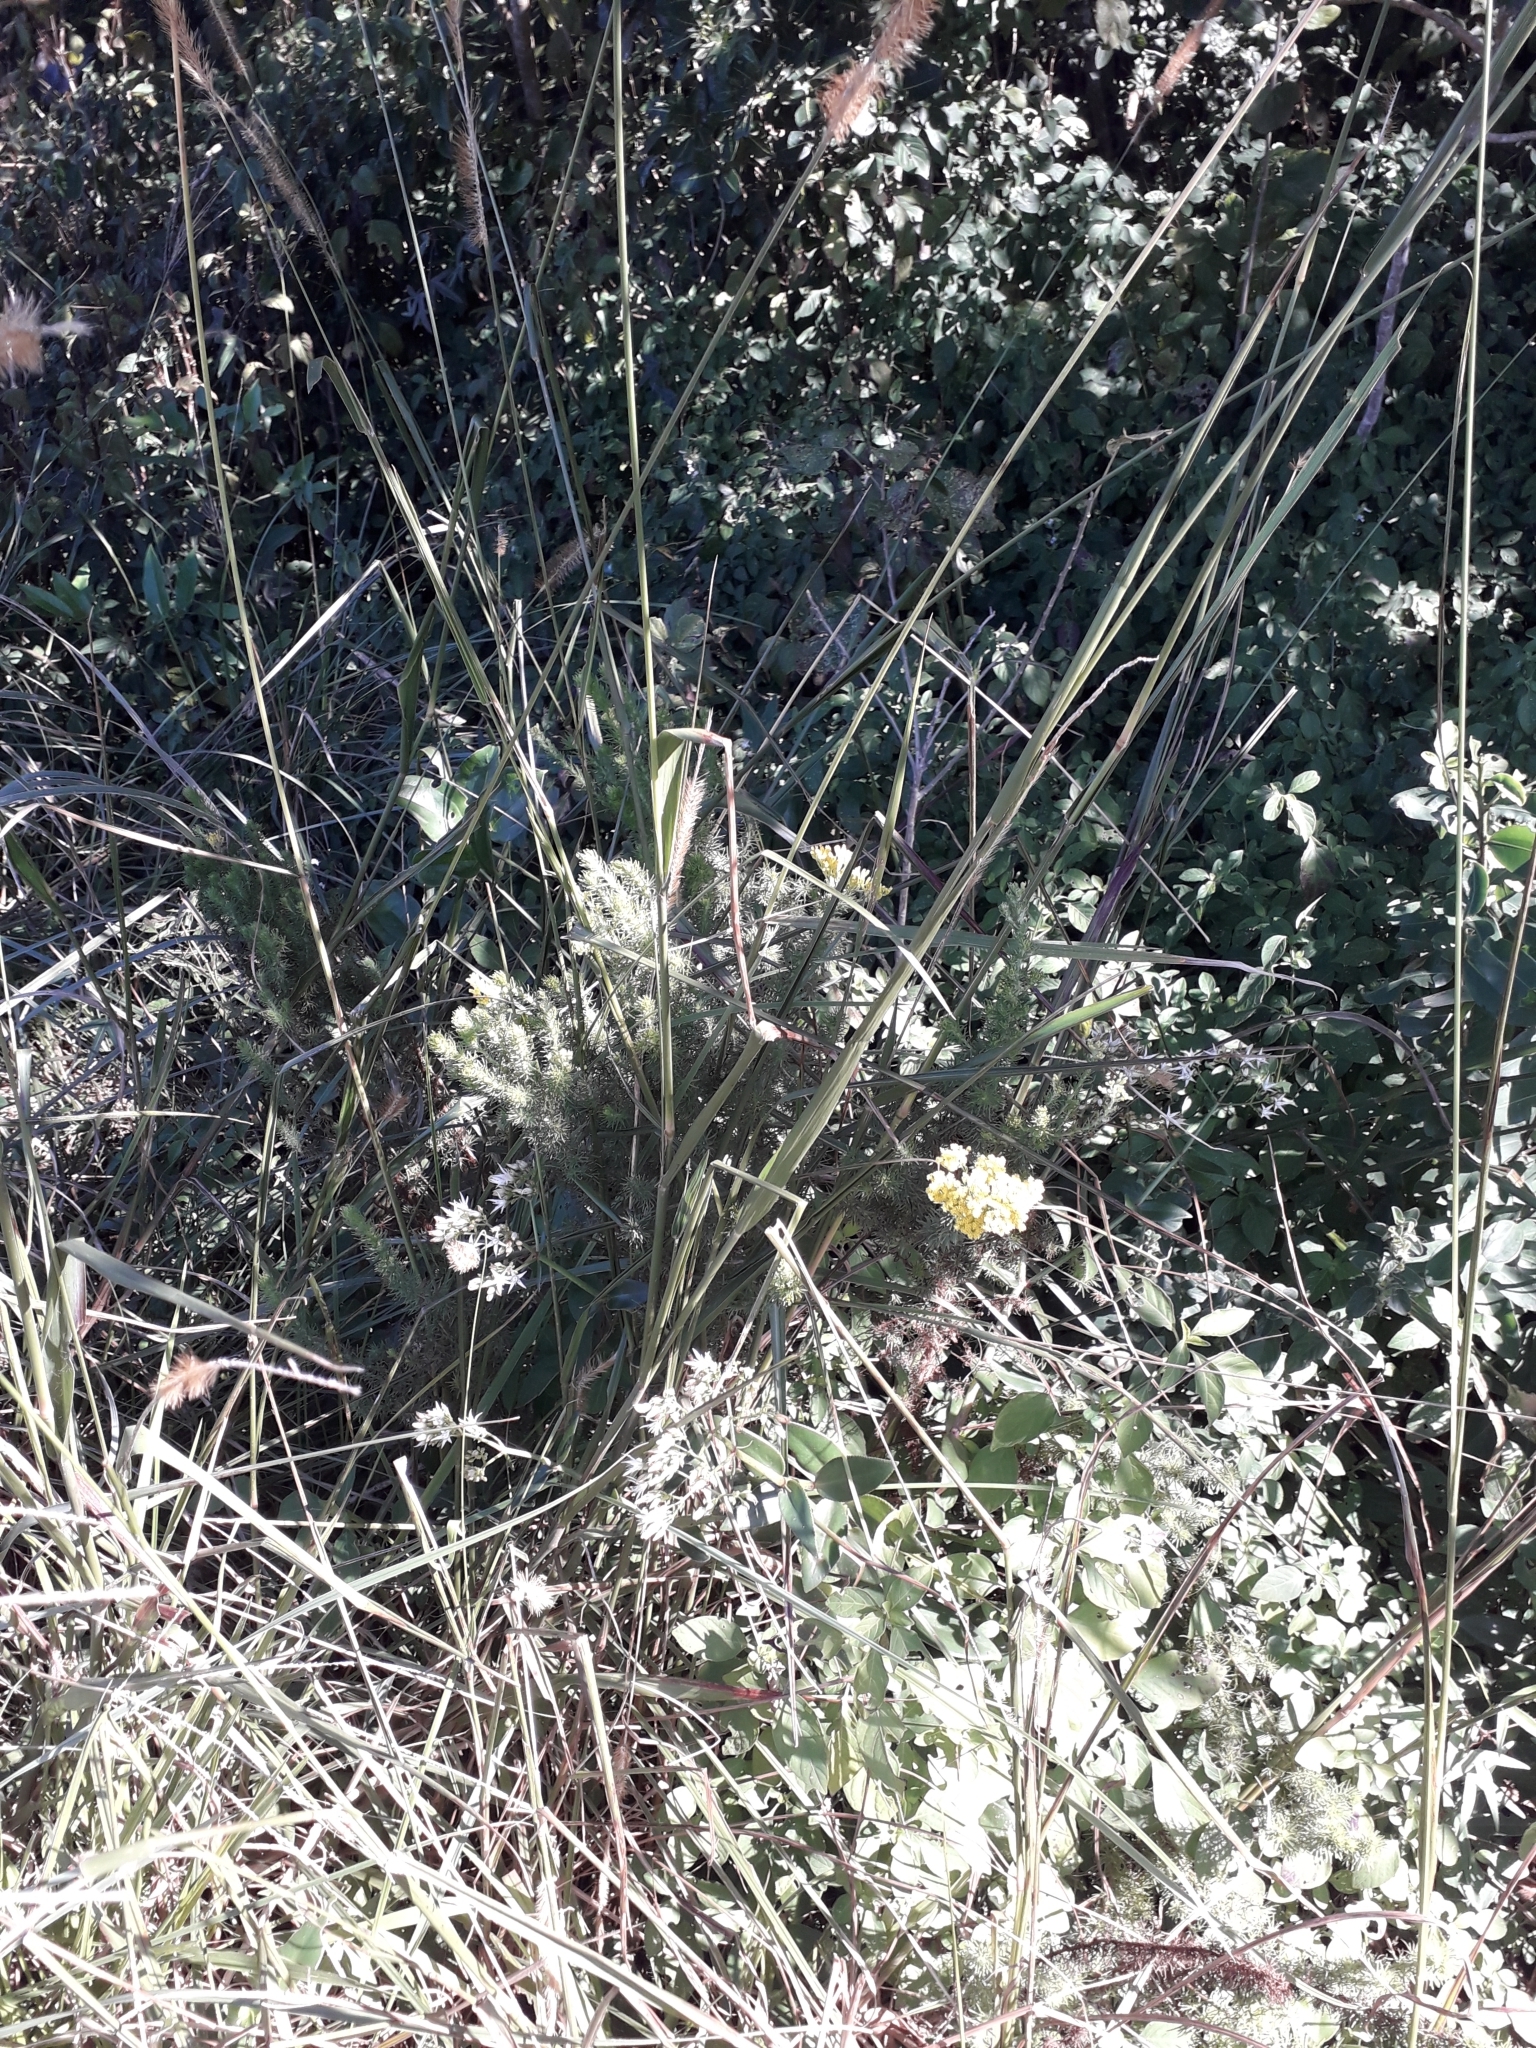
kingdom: Plantae
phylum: Tracheophyta
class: Magnoliopsida
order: Asterales
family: Asteraceae
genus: Phymaspermum
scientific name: Phymaspermum acerosum
